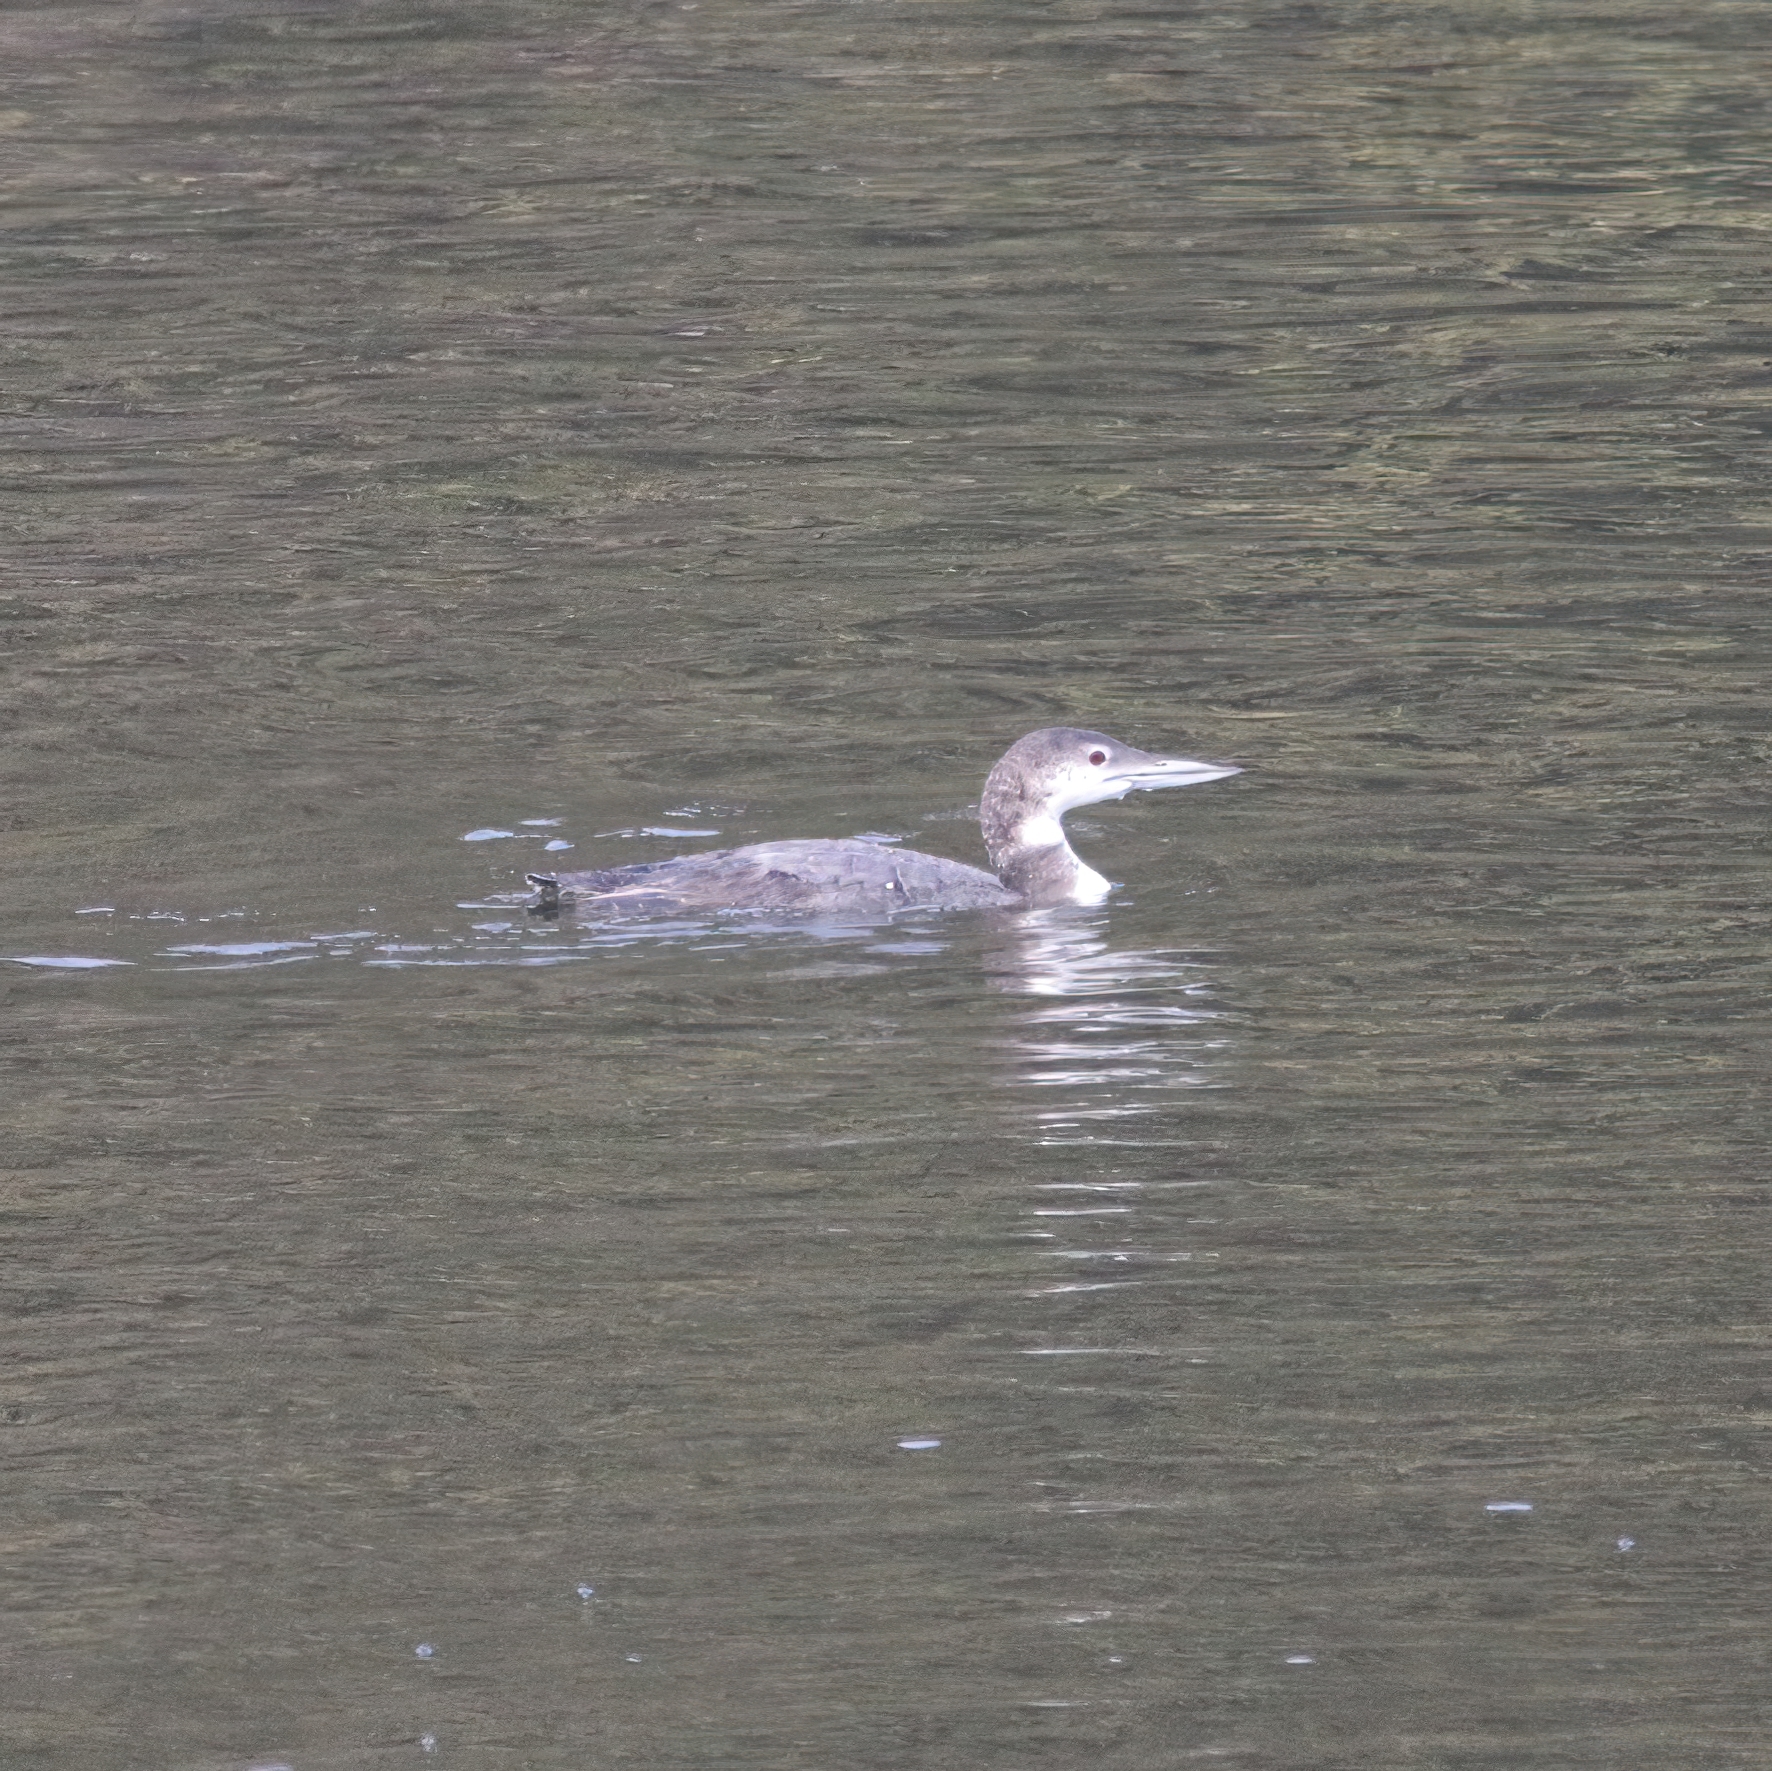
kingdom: Animalia
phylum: Chordata
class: Aves
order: Gaviiformes
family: Gaviidae
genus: Gavia
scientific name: Gavia immer
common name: Common loon
